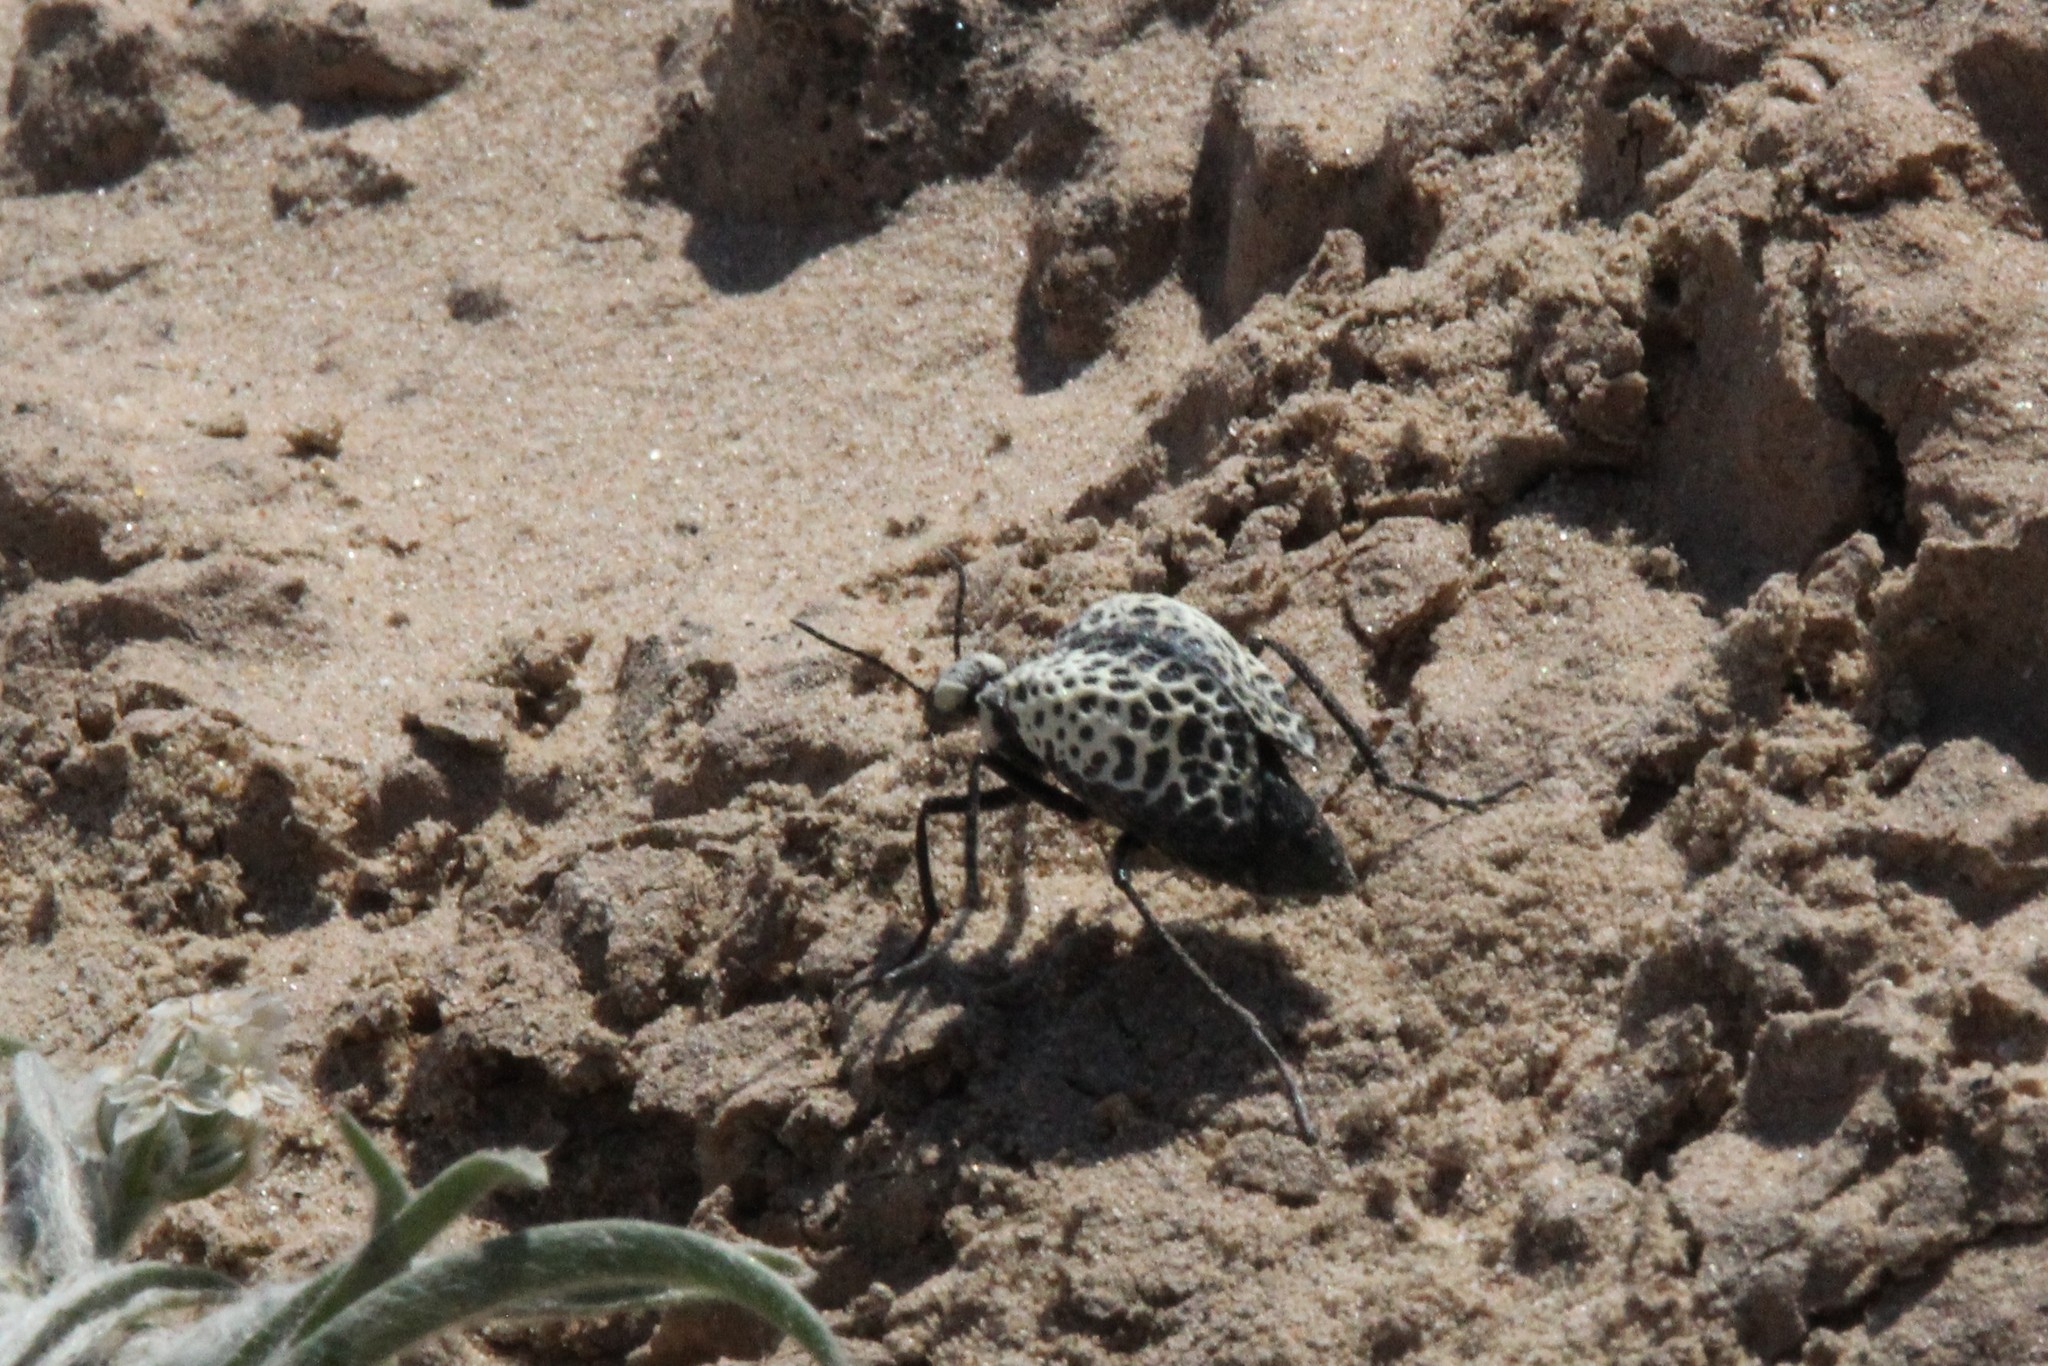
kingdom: Animalia
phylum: Arthropoda
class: Insecta
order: Coleoptera
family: Meloidae
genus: Cysteodemus
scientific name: Cysteodemus armatus
